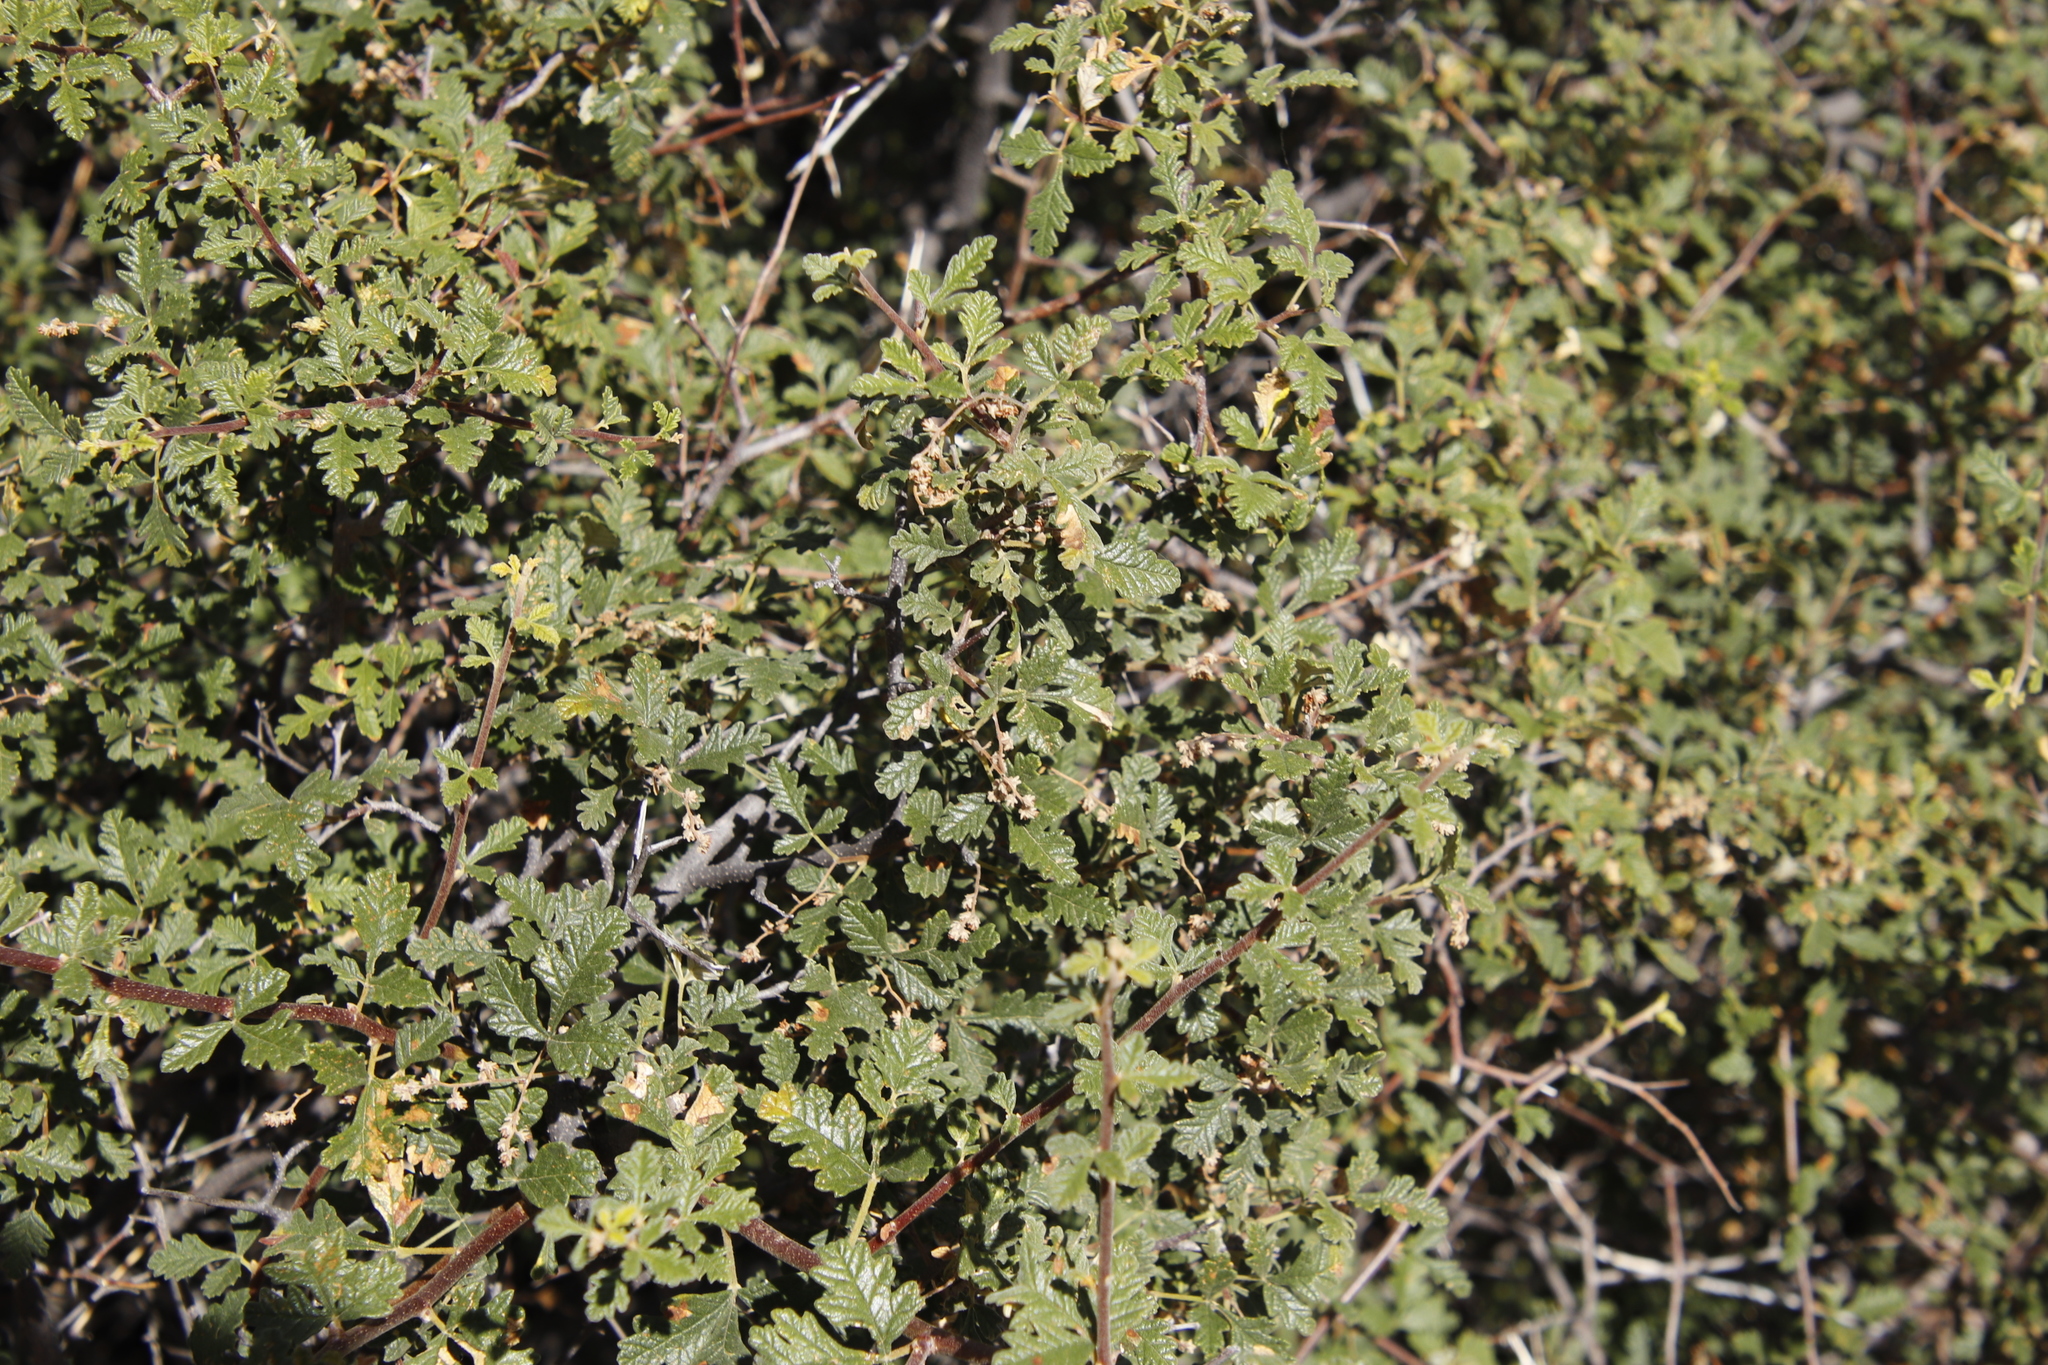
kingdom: Plantae
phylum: Tracheophyta
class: Magnoliopsida
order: Sapindales
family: Anacardiaceae
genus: Searsia
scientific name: Searsia incisa
